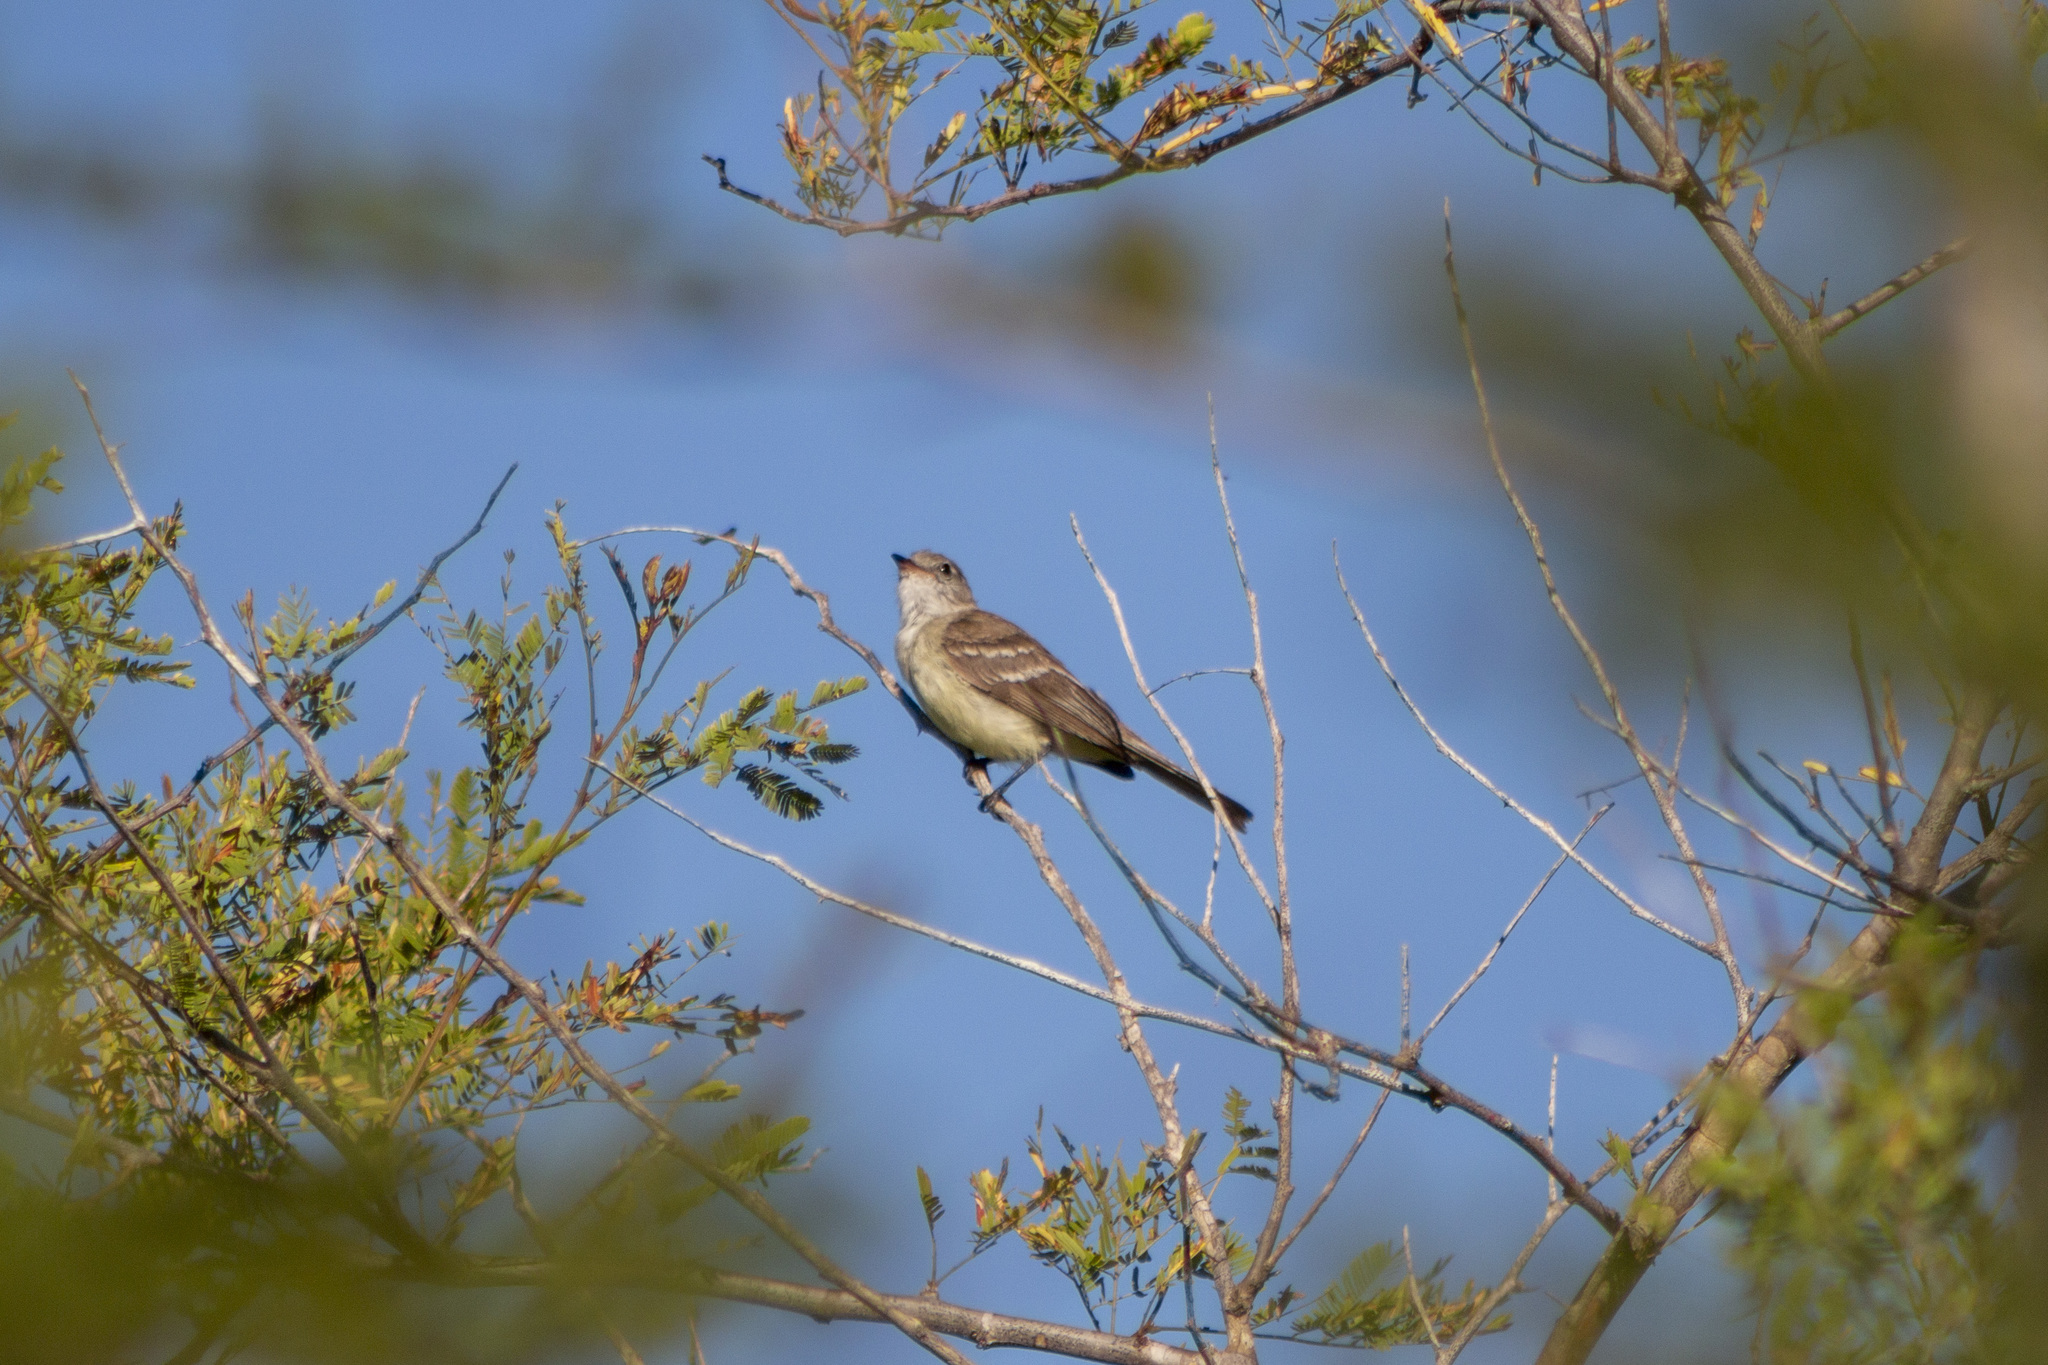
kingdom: Animalia
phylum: Chordata
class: Aves
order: Passeriformes
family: Tyrannidae
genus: Phaeomyias
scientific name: Phaeomyias murina
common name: Mouse-colored tyrannulet
